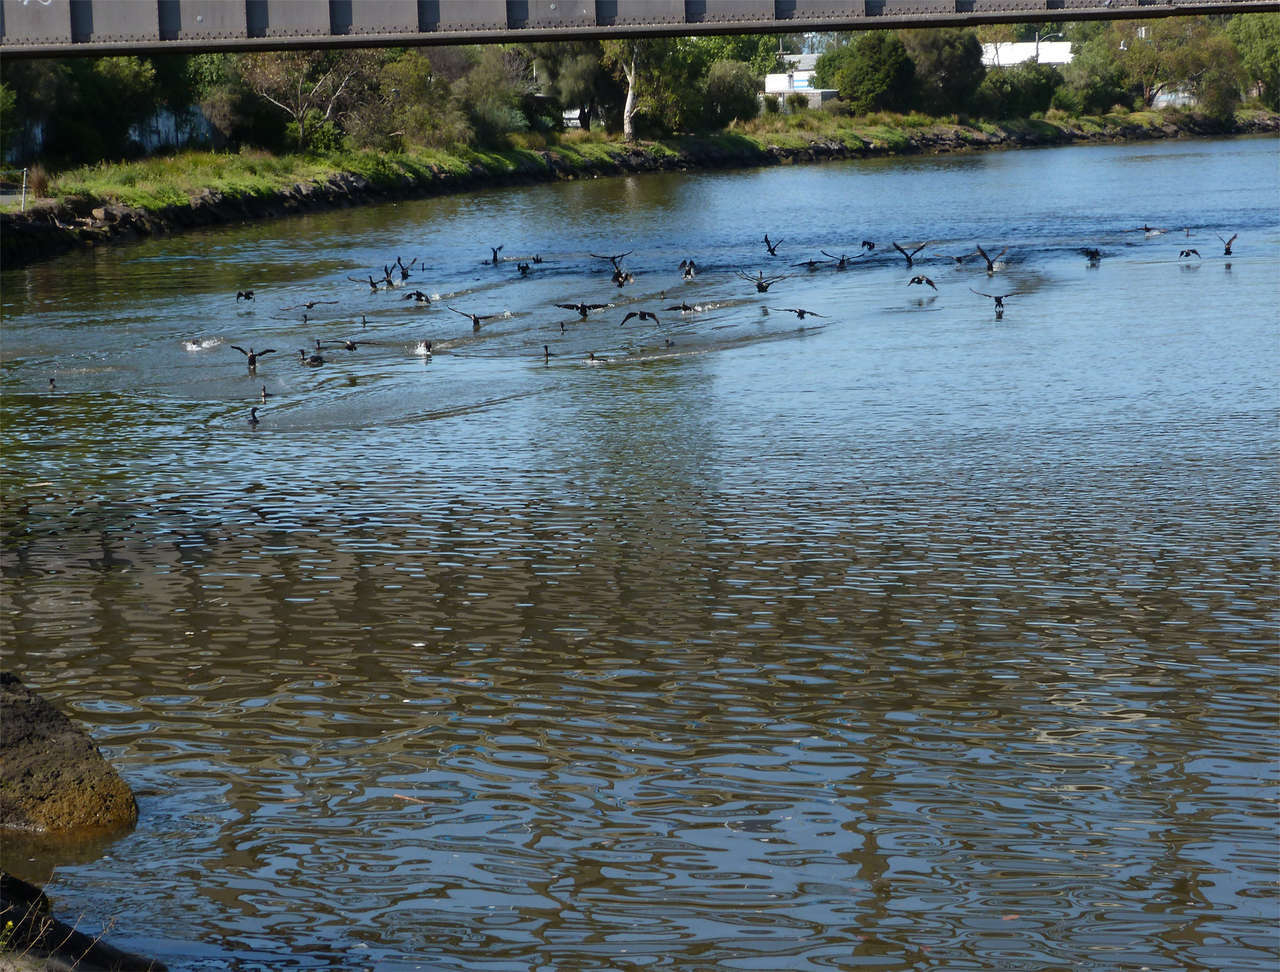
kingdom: Animalia
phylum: Chordata
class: Aves
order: Suliformes
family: Phalacrocoracidae
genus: Phalacrocorax
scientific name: Phalacrocorax sulcirostris
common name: Little black cormorant
